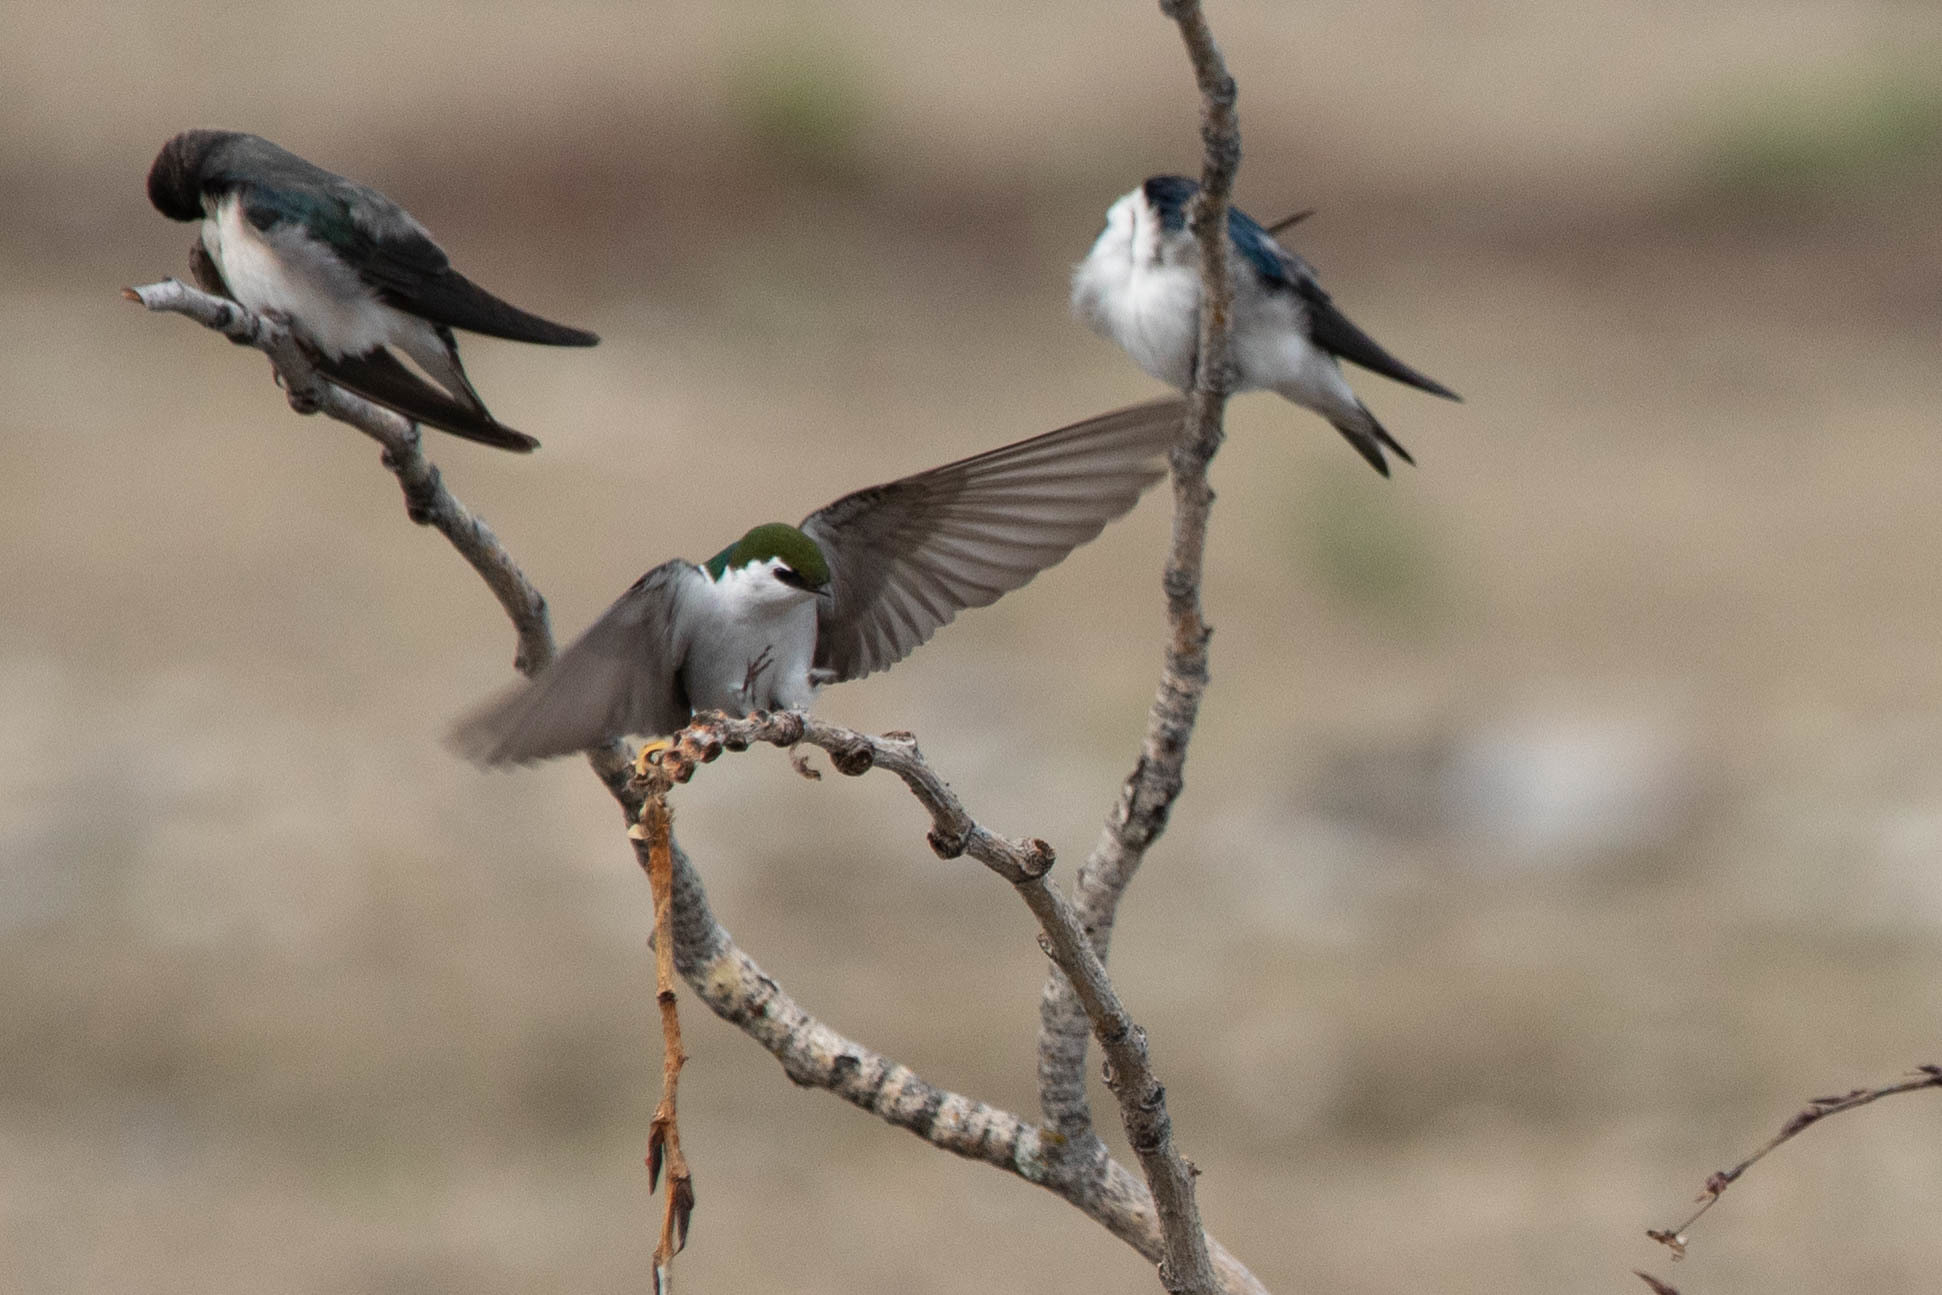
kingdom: Animalia
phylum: Chordata
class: Aves
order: Passeriformes
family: Hirundinidae
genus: Tachycineta
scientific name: Tachycineta thalassina
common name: Violet-green swallow
